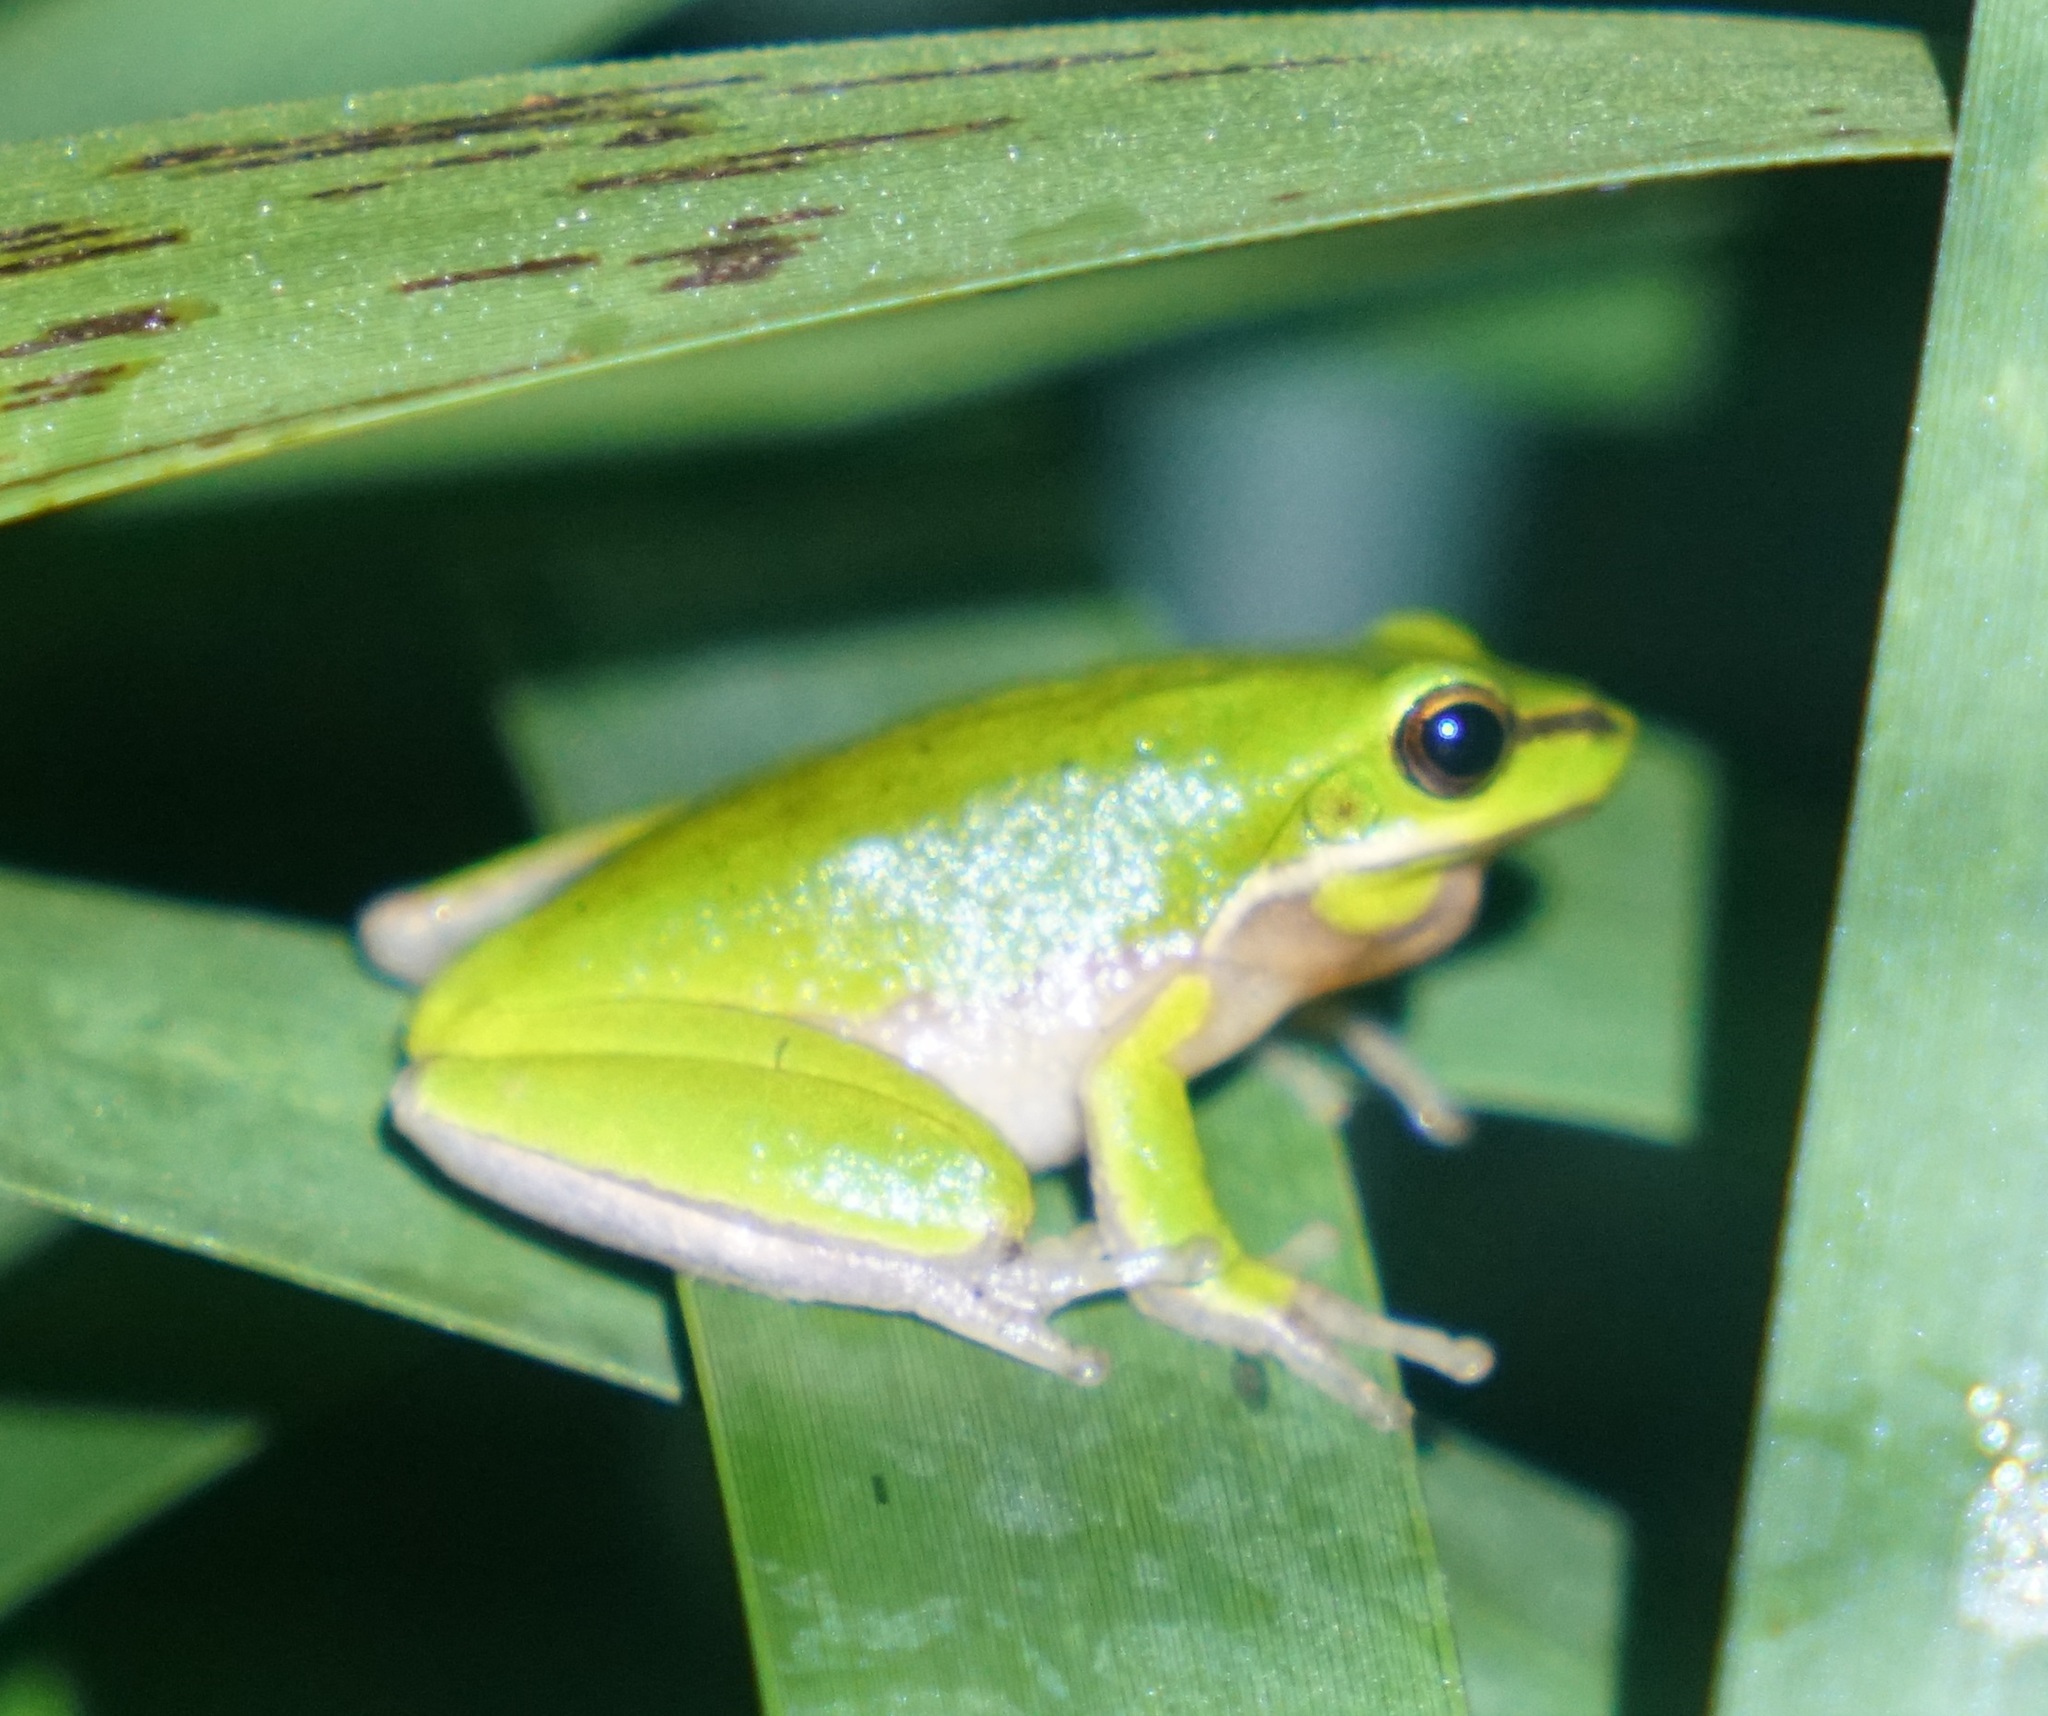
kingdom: Animalia
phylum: Chordata
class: Amphibia
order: Anura
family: Pelodryadidae
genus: Litoria
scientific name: Litoria fallax
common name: Eastern dwarf treefrog
